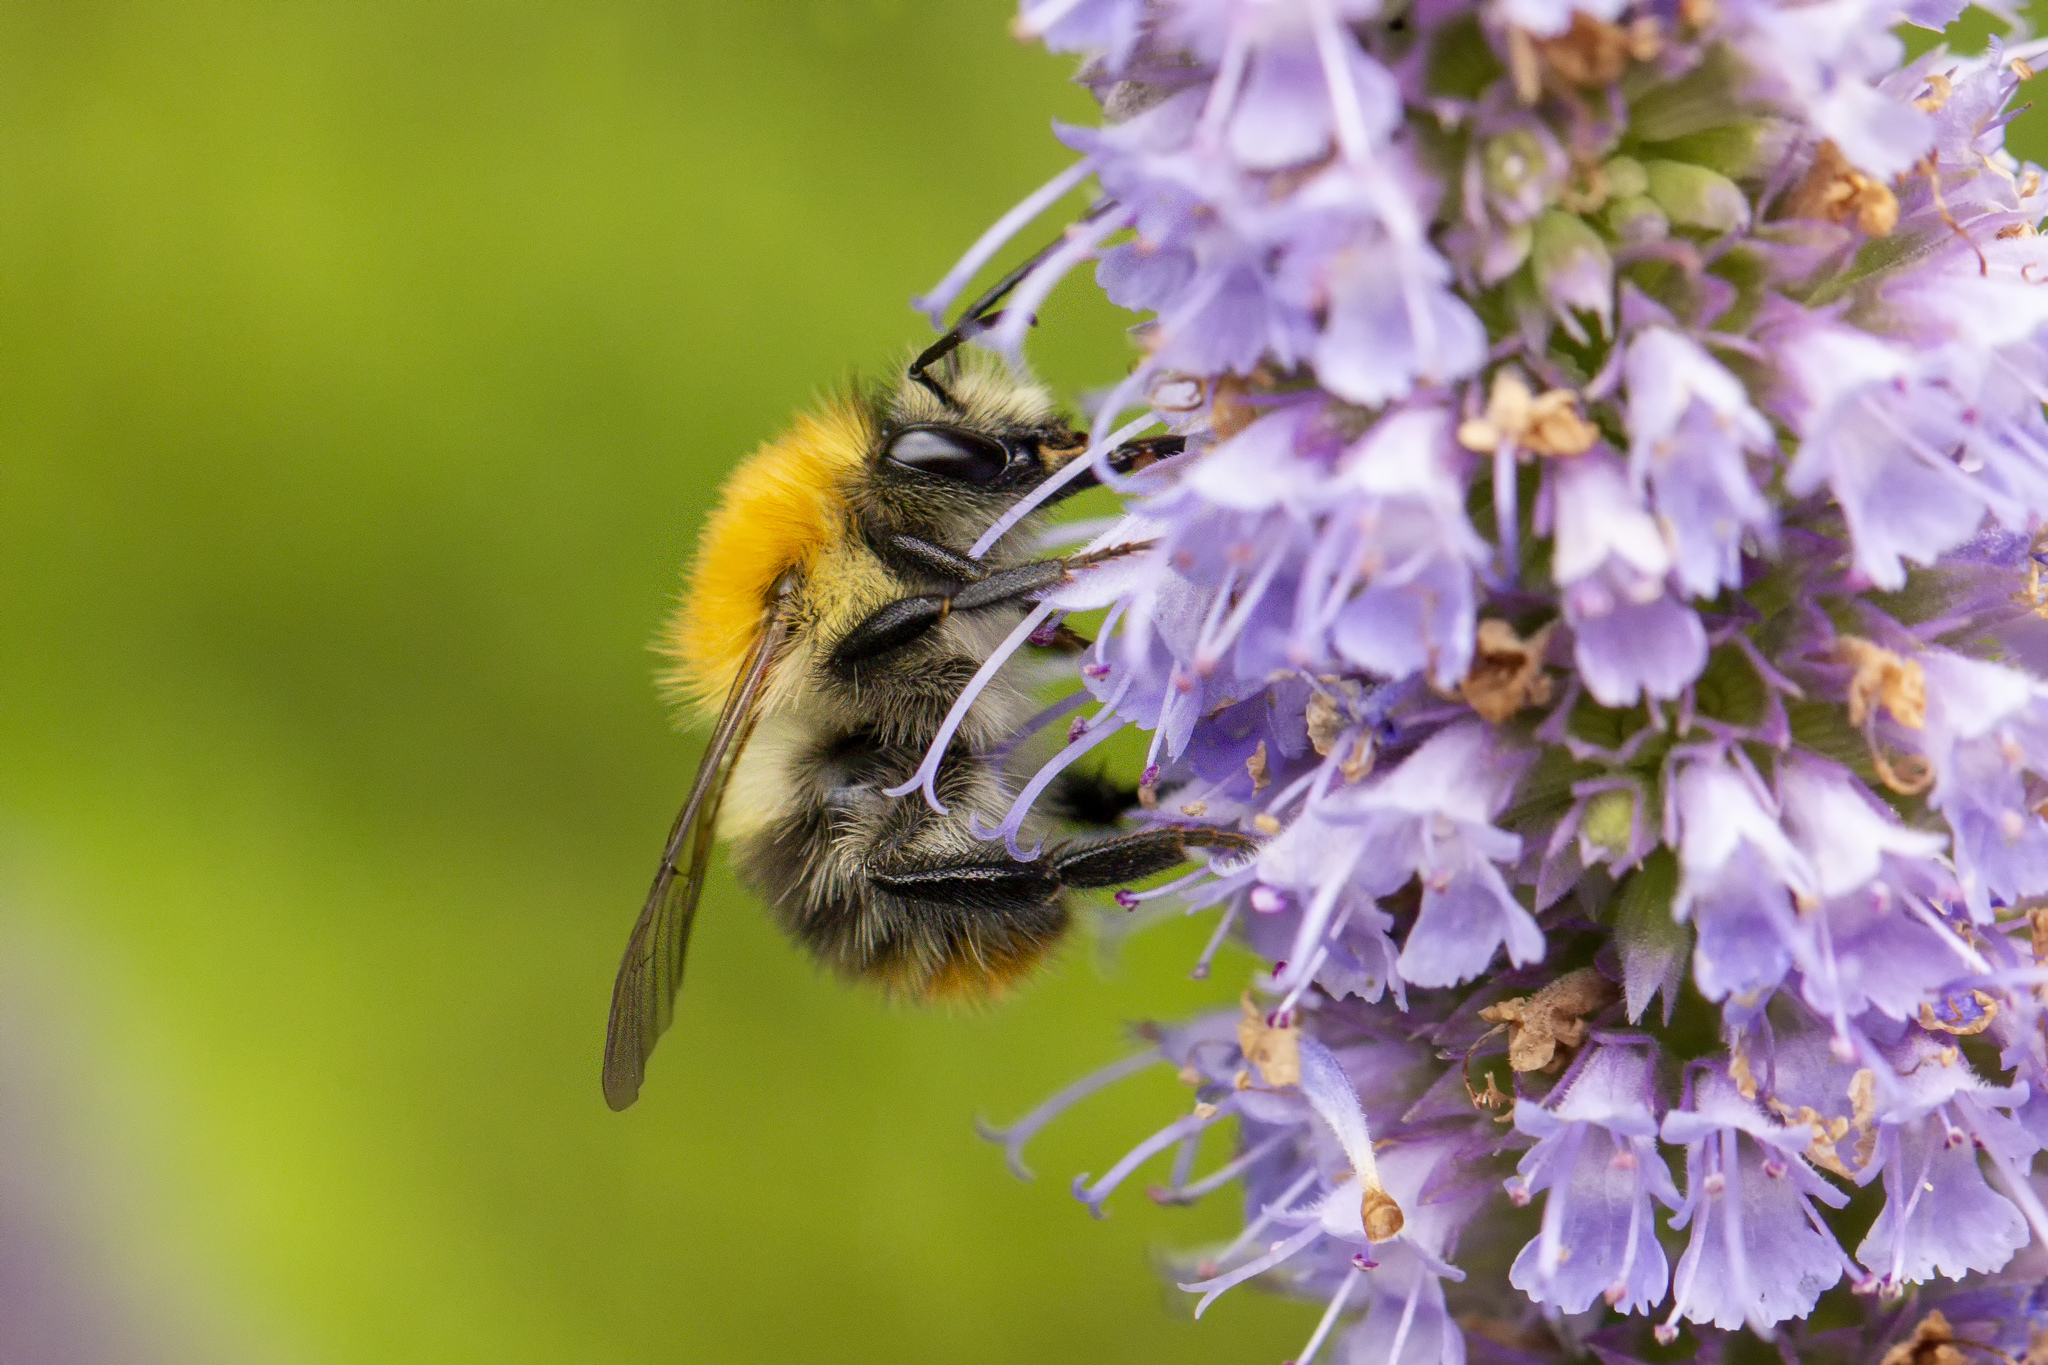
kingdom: Animalia
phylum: Arthropoda
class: Insecta
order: Hymenoptera
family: Apidae
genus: Bombus
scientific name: Bombus pascuorum
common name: Common carder bee
